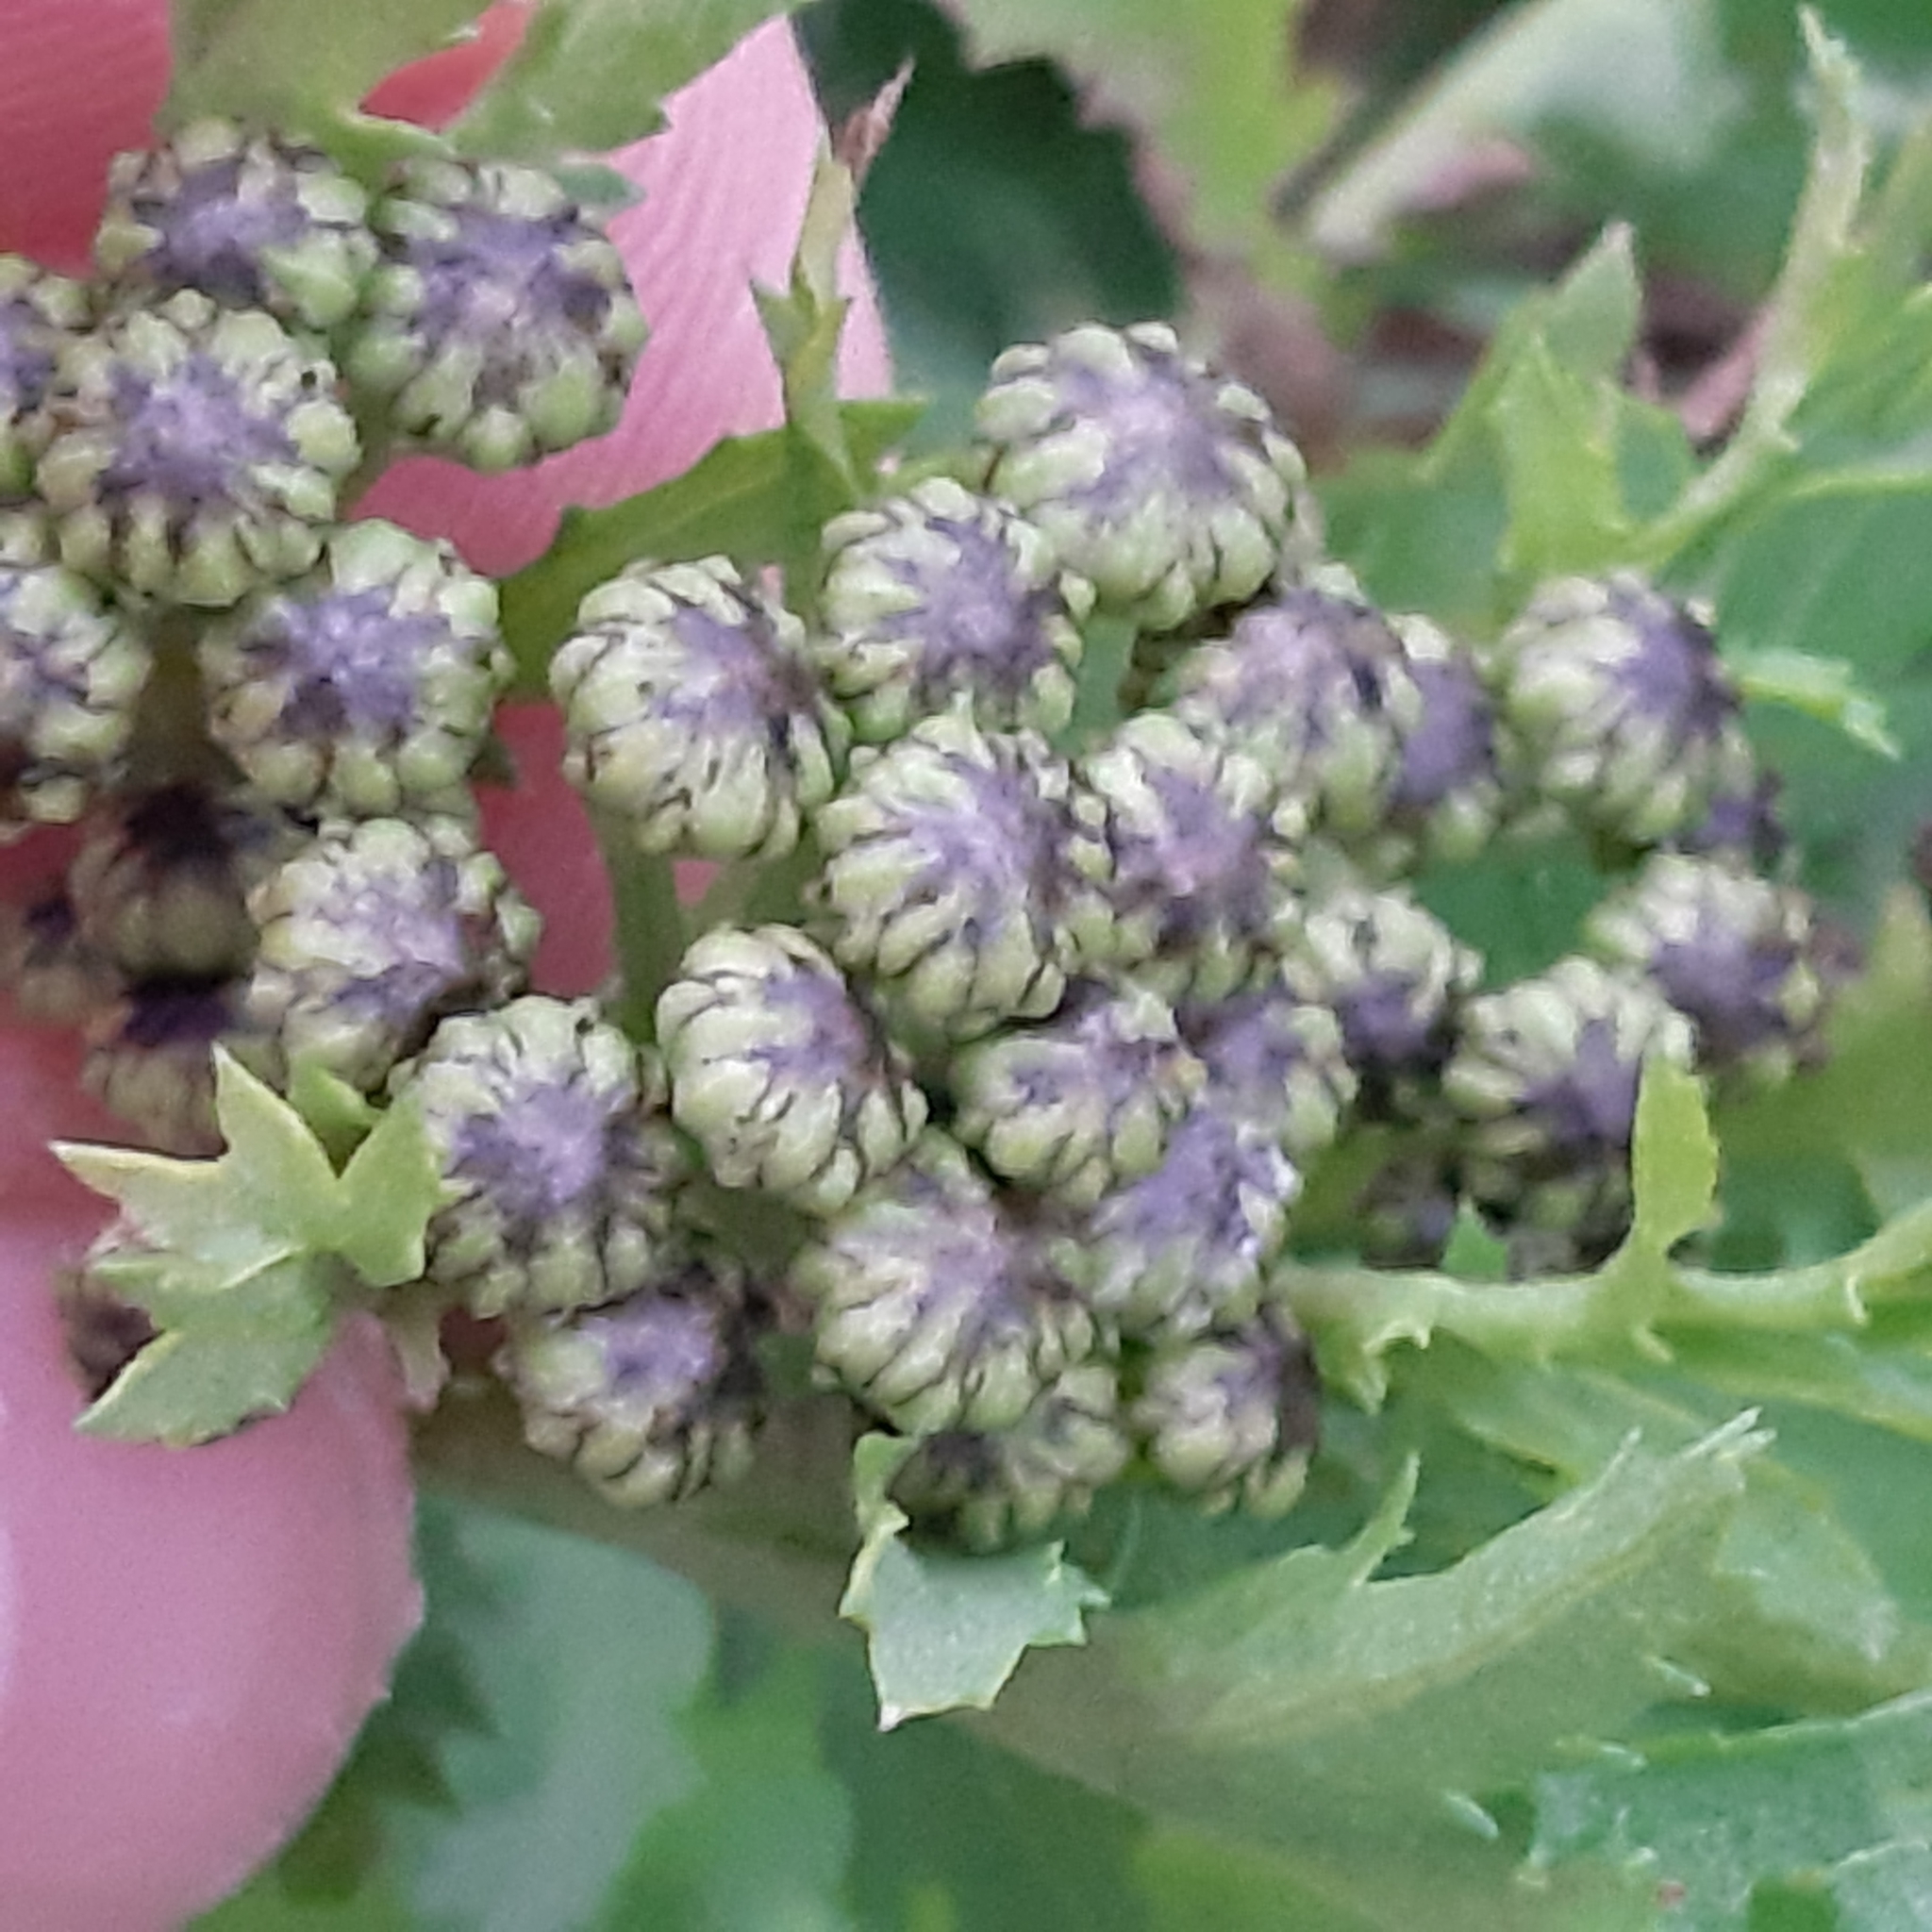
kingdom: Plantae
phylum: Tracheophyta
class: Magnoliopsida
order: Asterales
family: Asteraceae
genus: Tanacetum
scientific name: Tanacetum vulgare
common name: Common tansy
